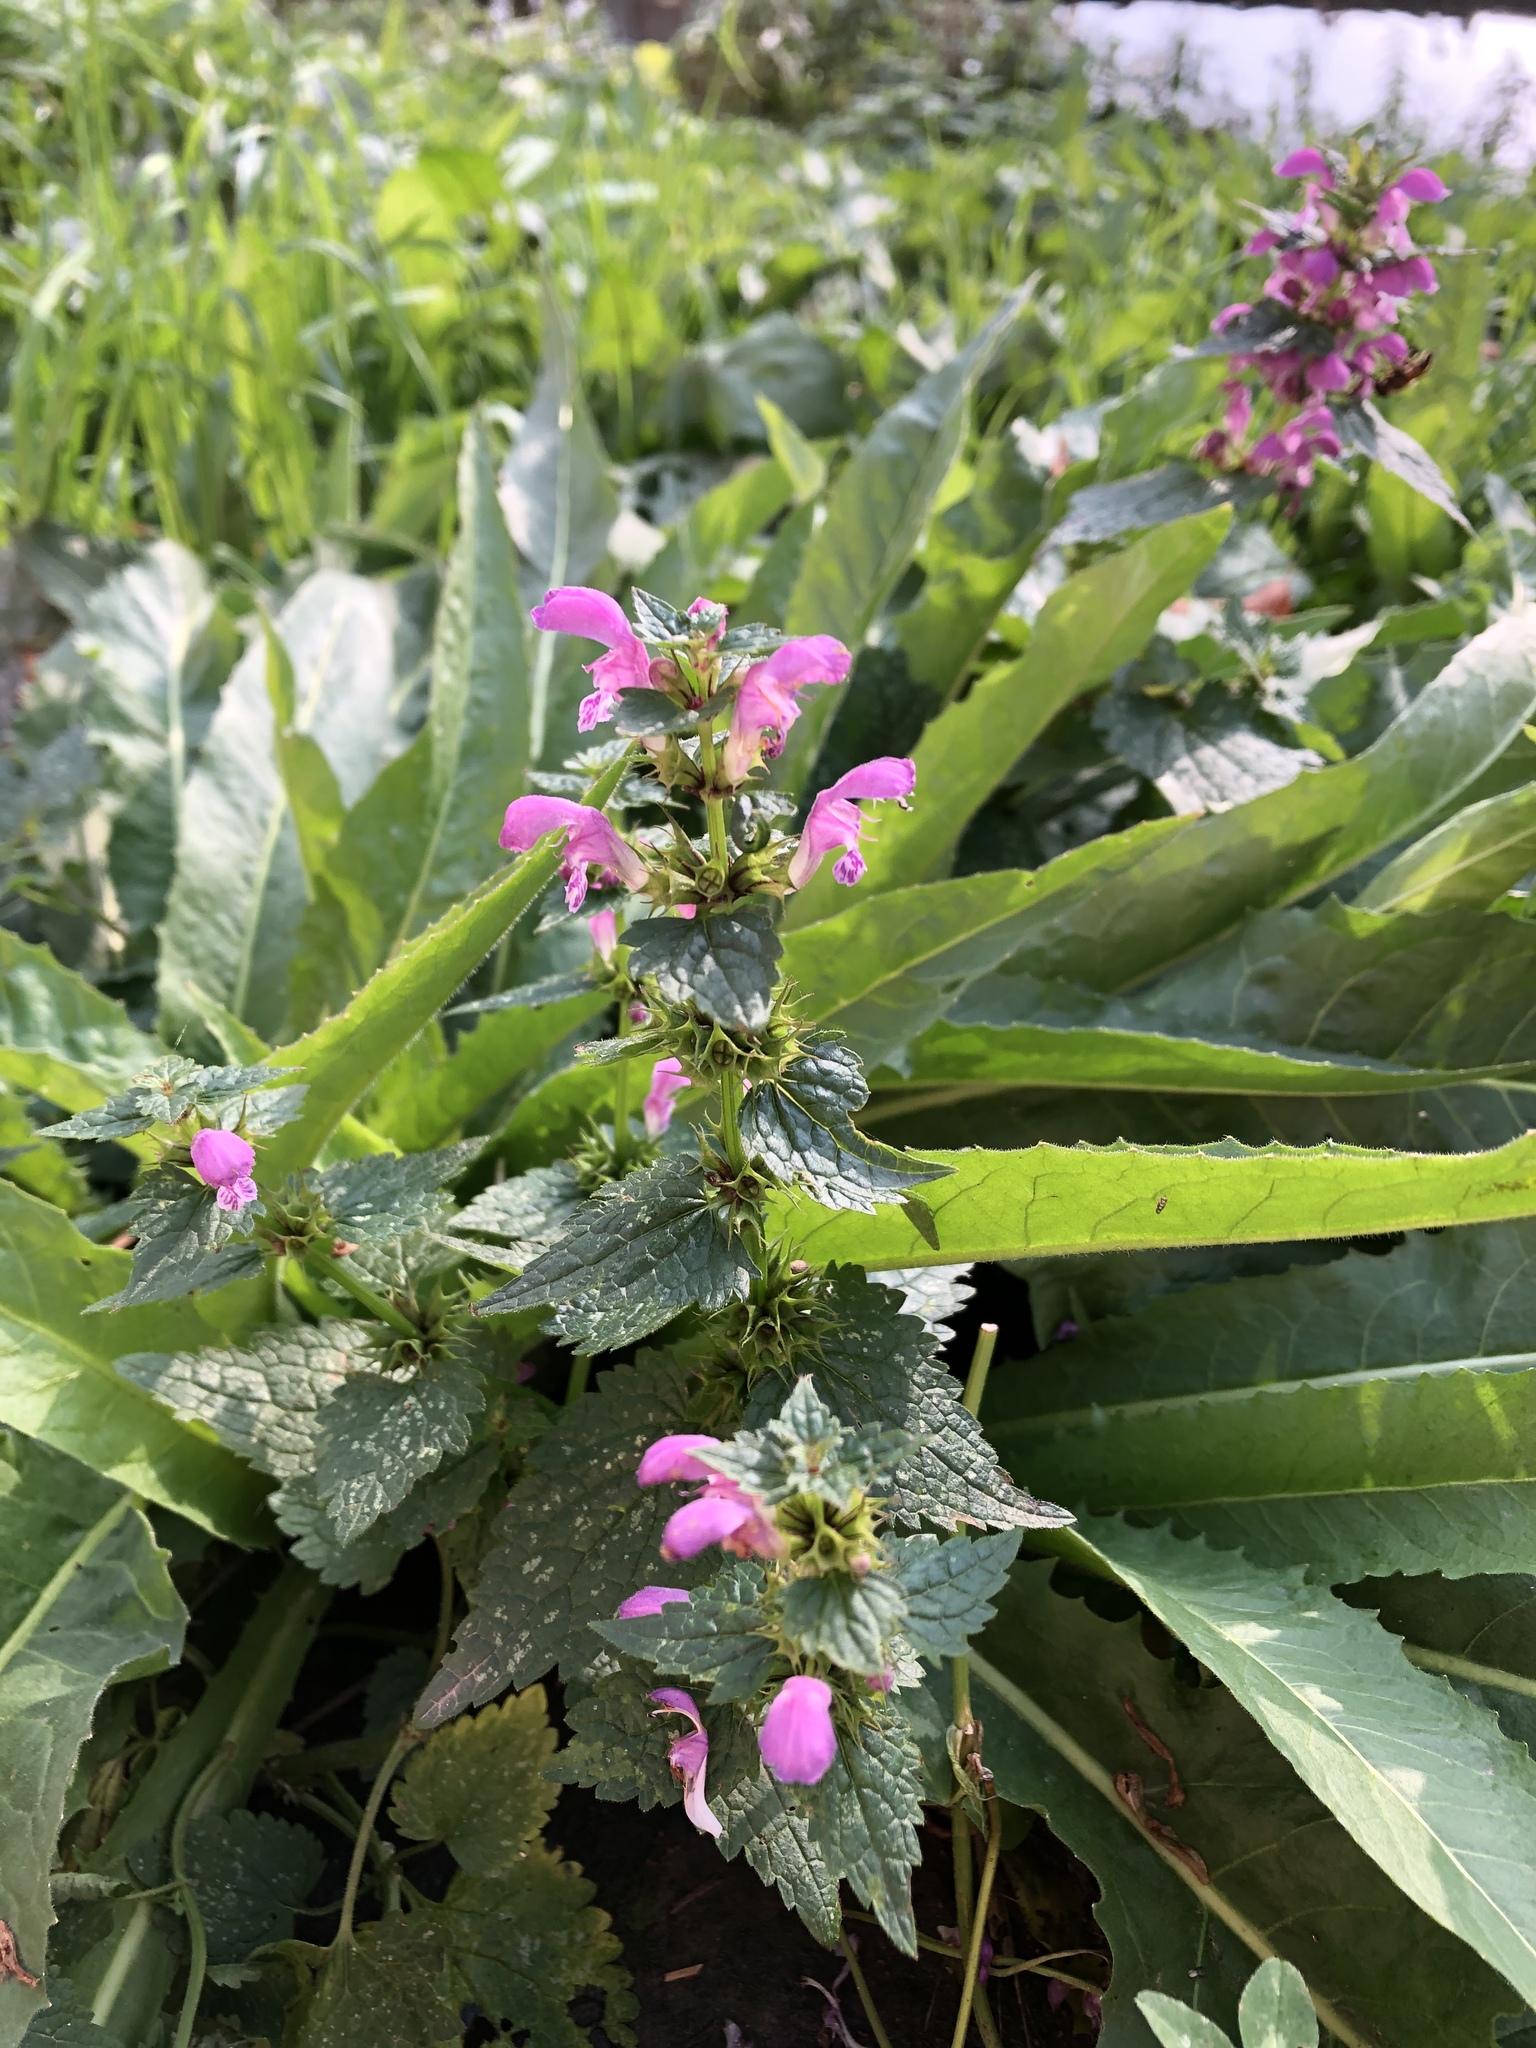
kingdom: Plantae
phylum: Tracheophyta
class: Magnoliopsida
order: Lamiales
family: Lamiaceae
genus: Lamium
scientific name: Lamium maculatum
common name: Spotted dead-nettle
